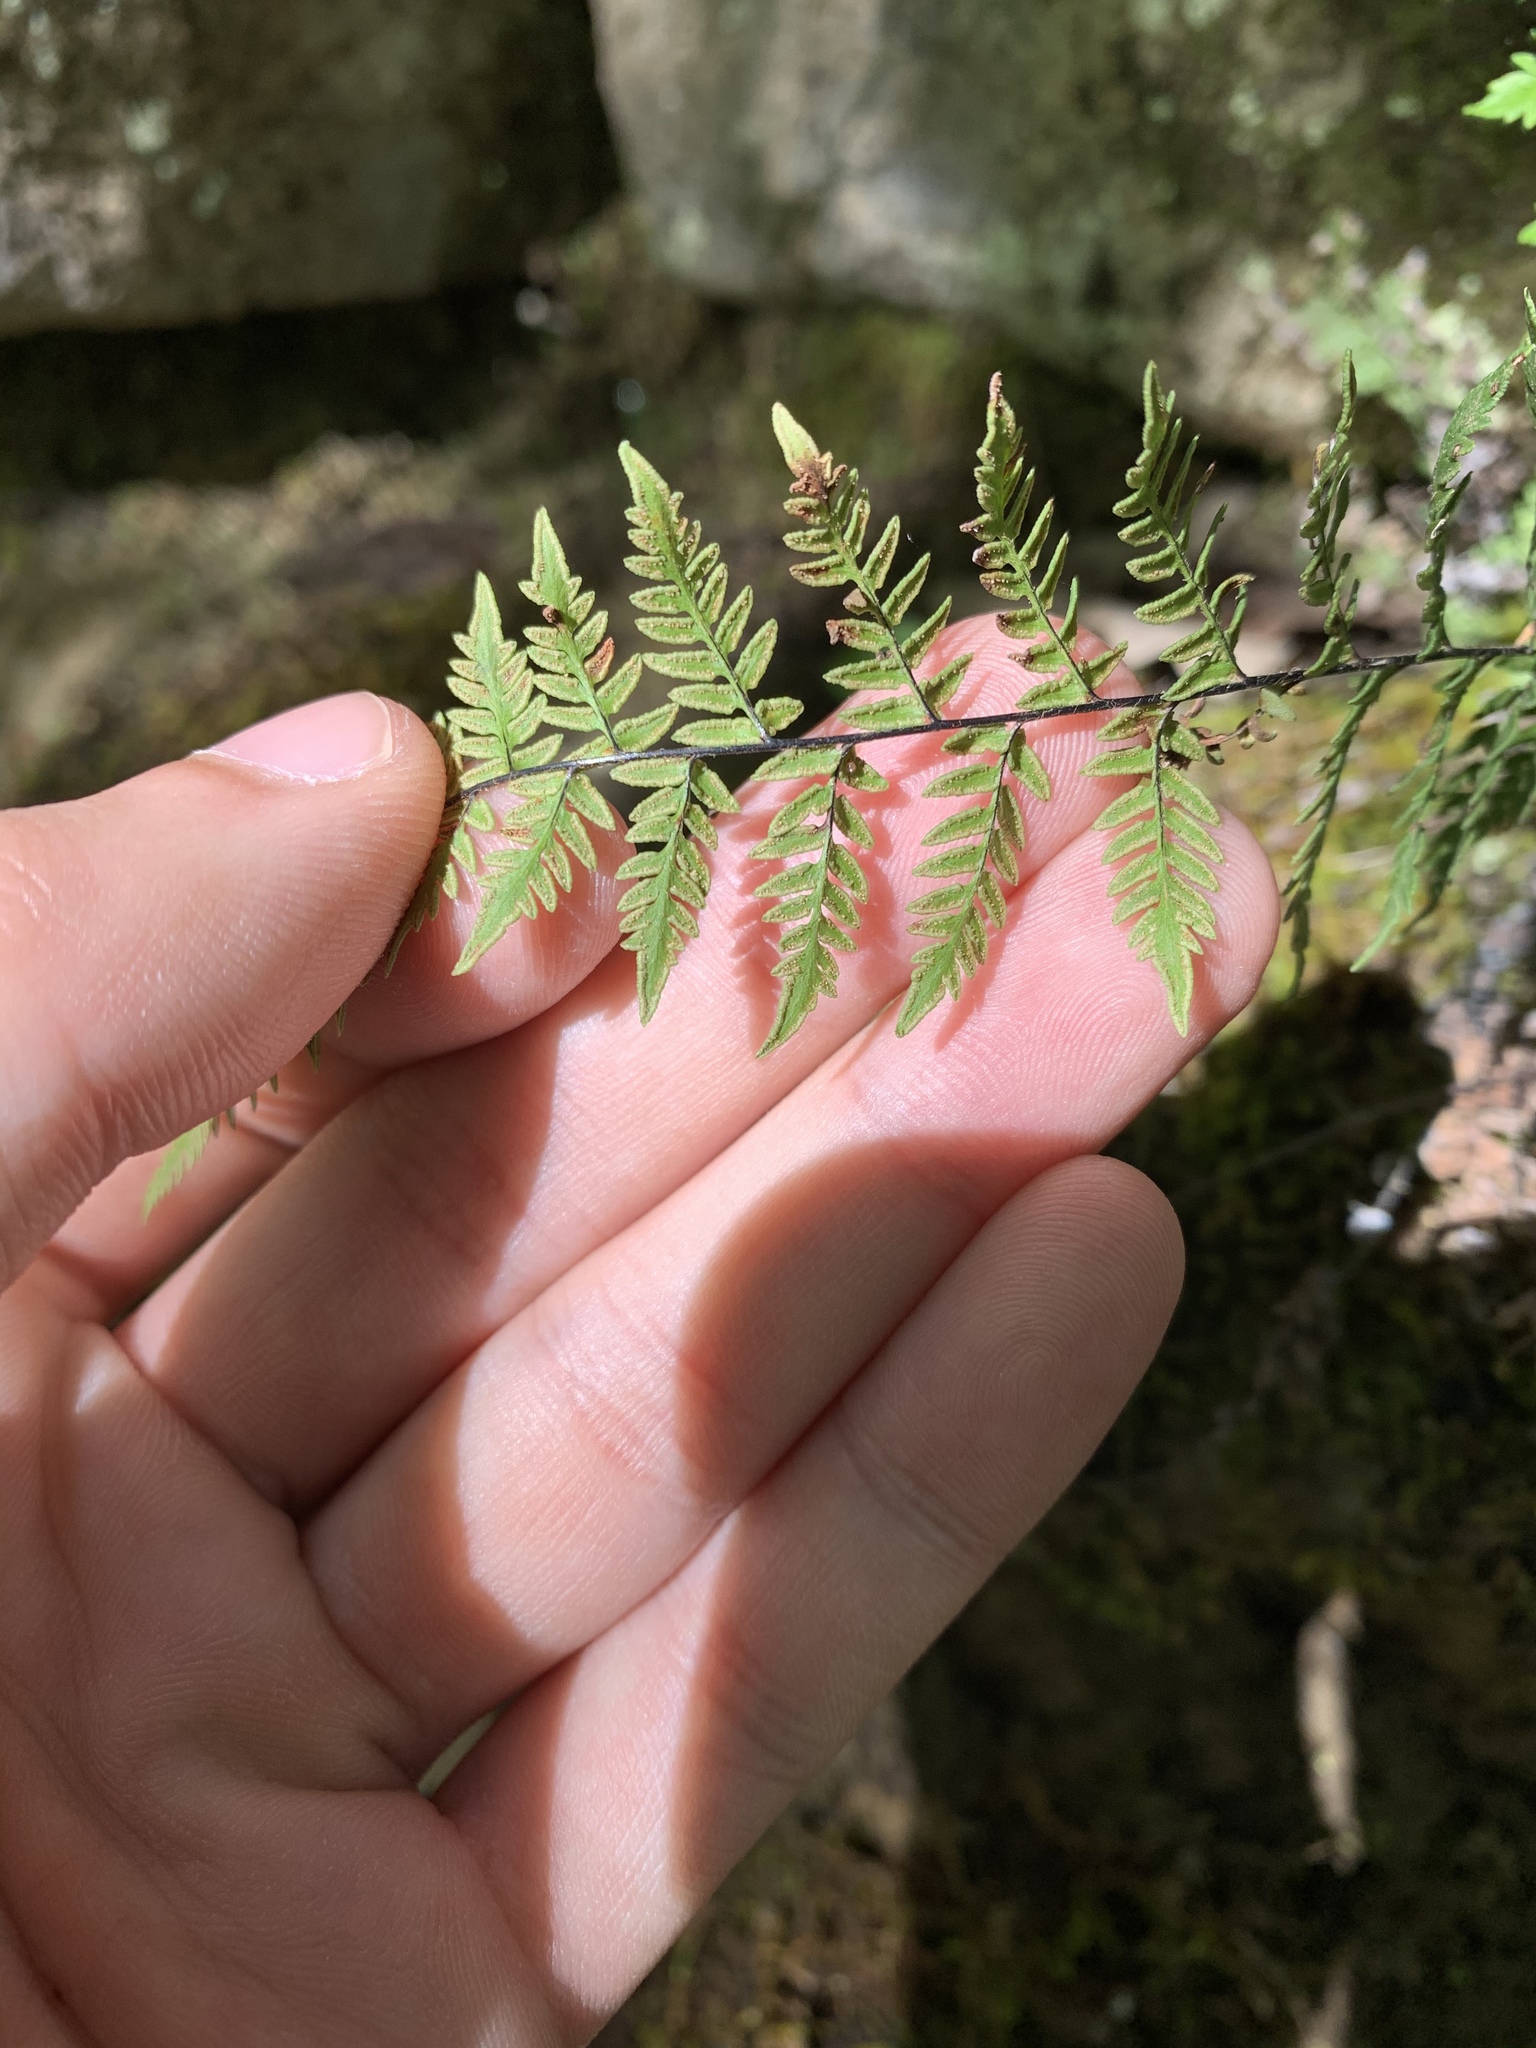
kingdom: Plantae
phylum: Tracheophyta
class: Polypodiopsida
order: Polypodiales
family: Pteridaceae
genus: Myriopteris
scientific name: Myriopteris alabamensis
